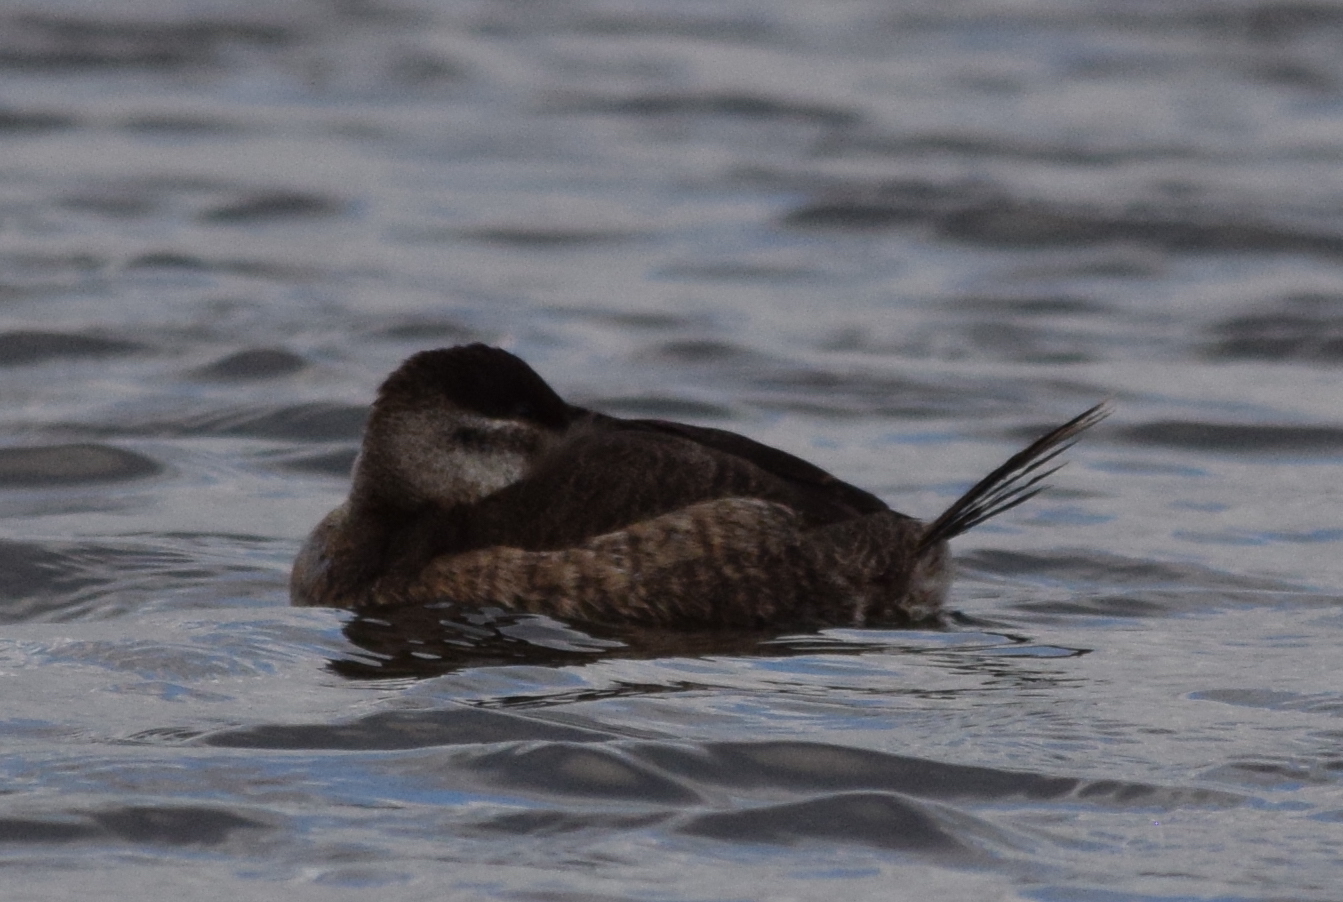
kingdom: Animalia
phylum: Chordata
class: Aves
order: Anseriformes
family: Anatidae
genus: Oxyura
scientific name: Oxyura jamaicensis
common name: Ruddy duck
